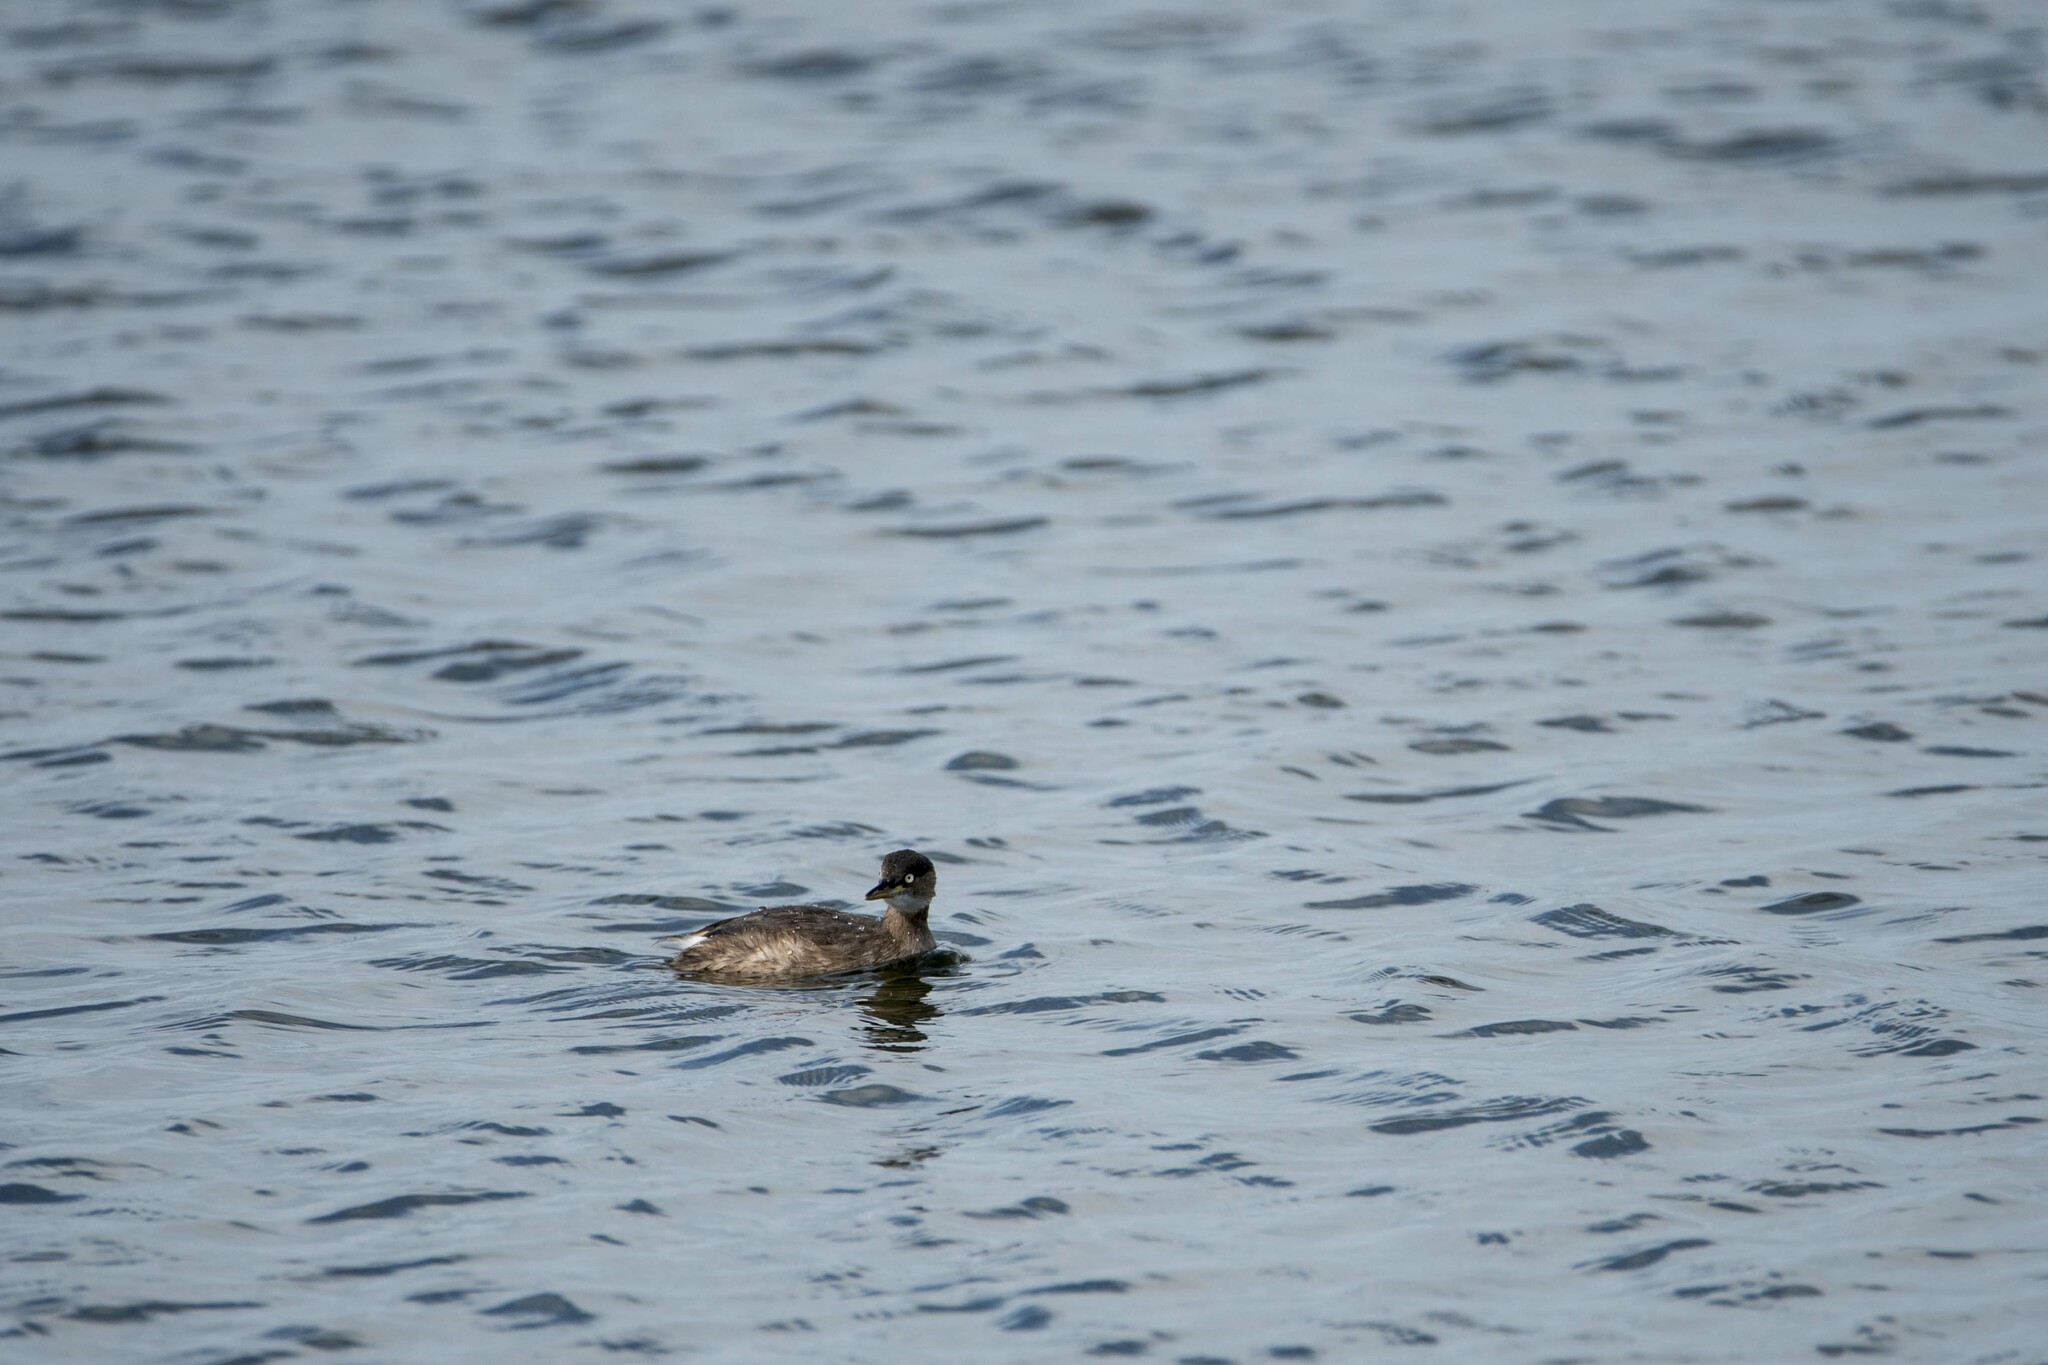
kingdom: Animalia
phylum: Chordata
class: Aves
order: Podicipediformes
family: Podicipedidae
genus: Tachybaptus
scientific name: Tachybaptus ruficollis
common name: Little grebe
